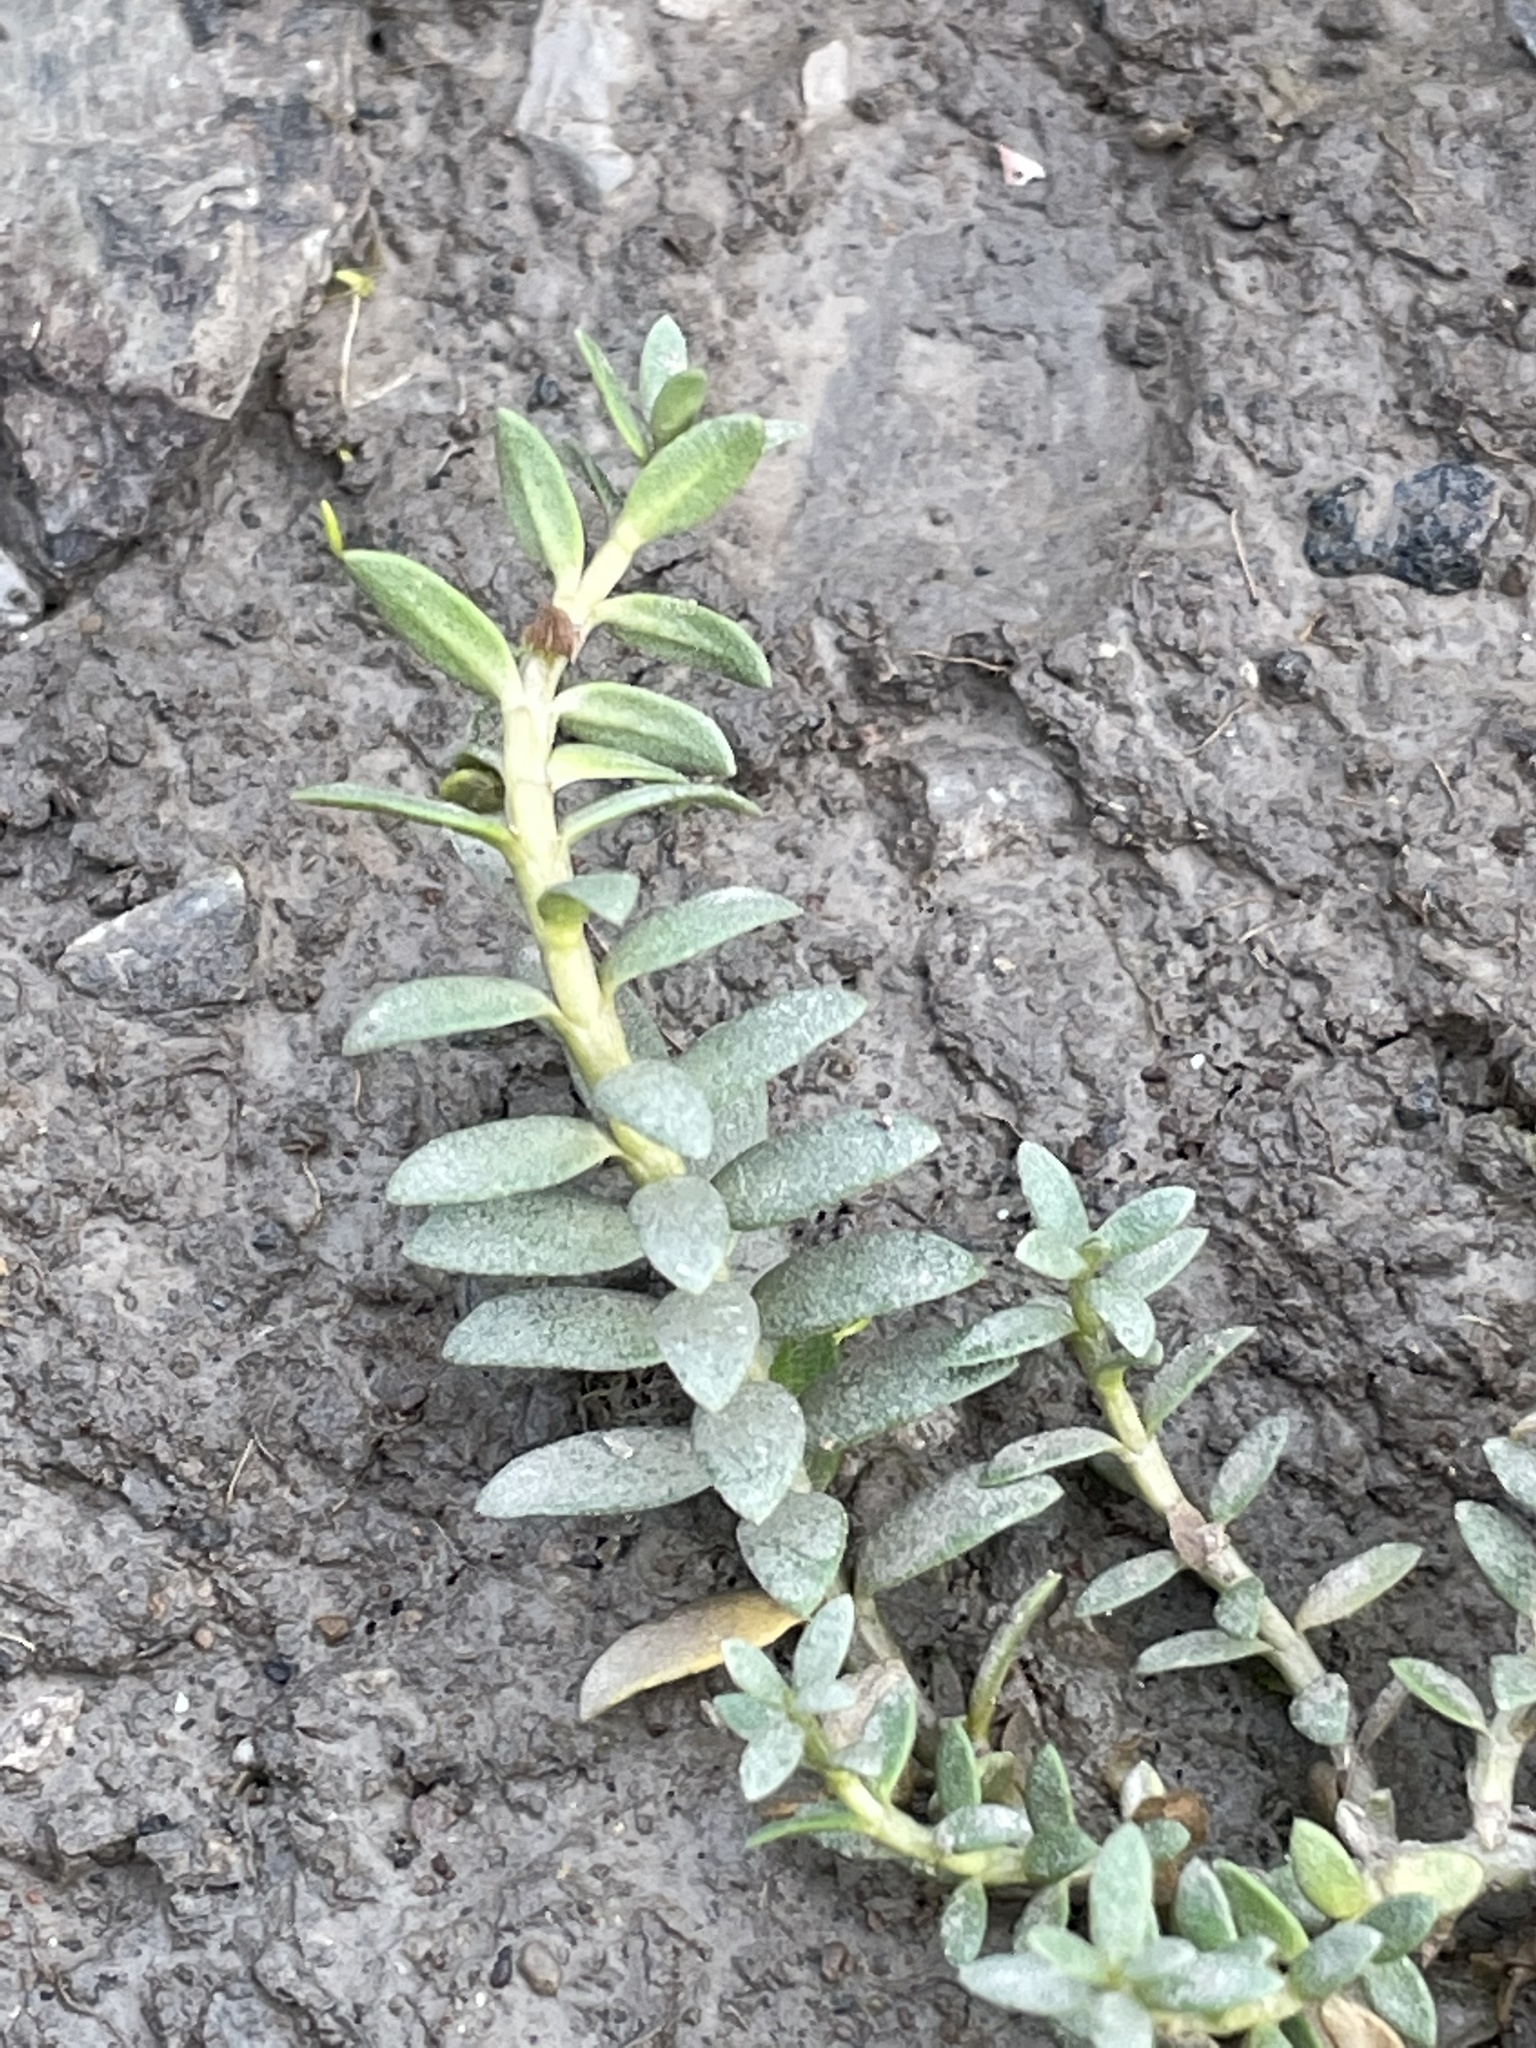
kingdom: Plantae
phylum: Tracheophyta
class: Magnoliopsida
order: Ericales
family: Primulaceae
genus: Lysimachia
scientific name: Lysimachia maritima
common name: Sea milkwort
